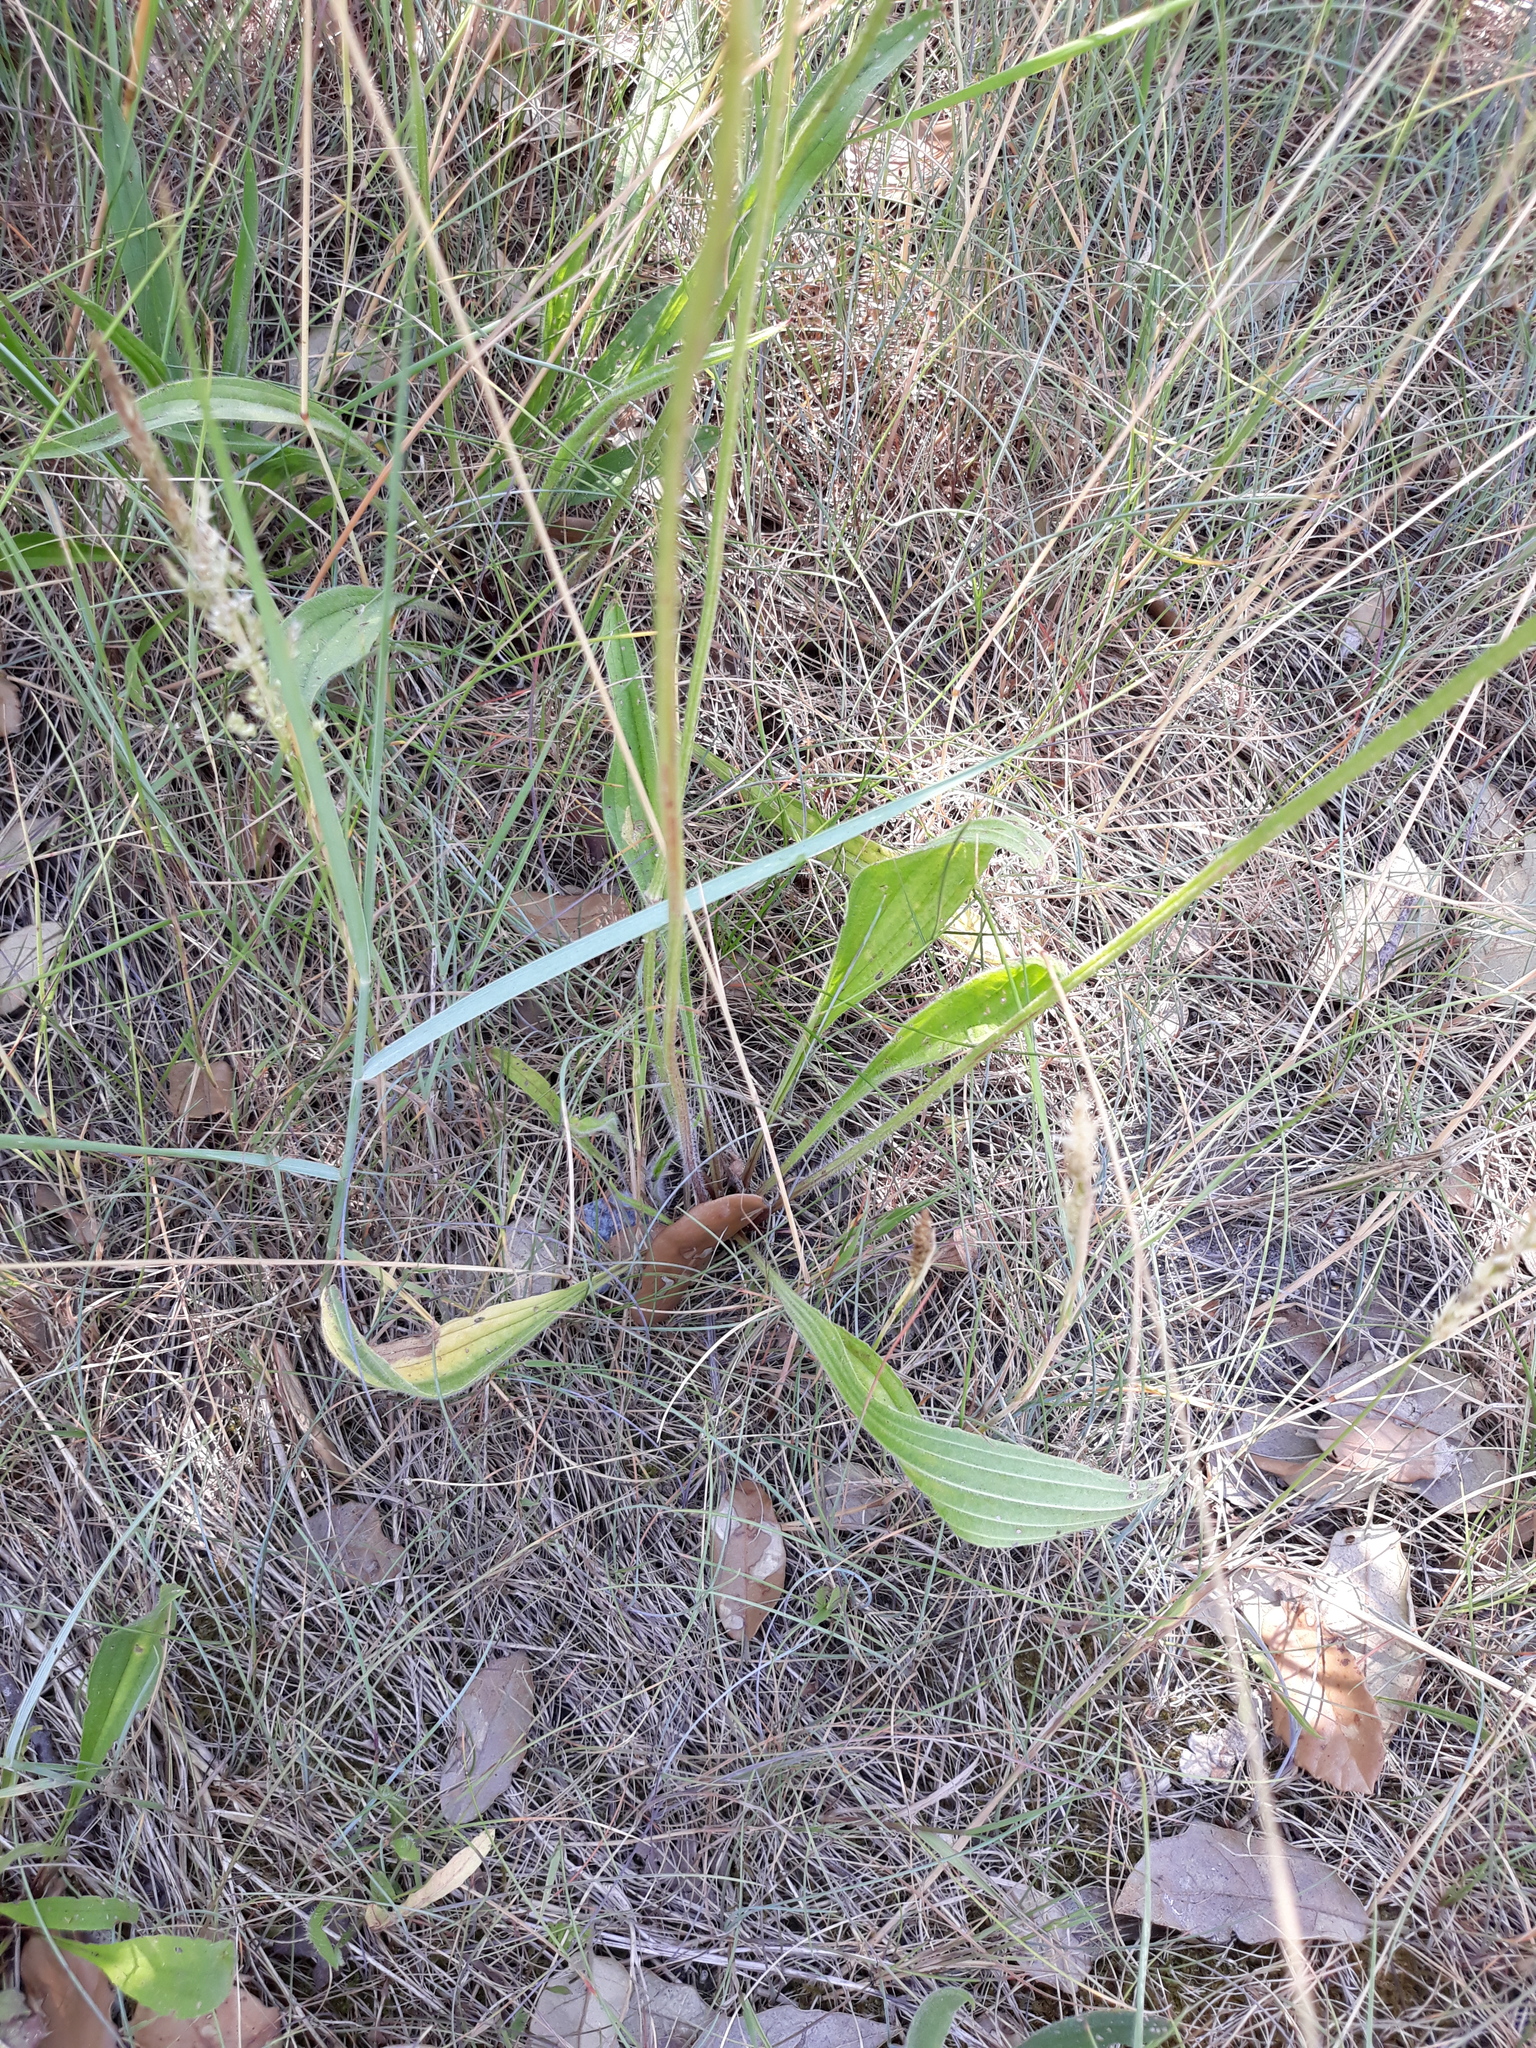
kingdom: Plantae
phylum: Tracheophyta
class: Magnoliopsida
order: Lamiales
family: Plantaginaceae
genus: Plantago
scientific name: Plantago lanceolata
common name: Ribwort plantain
